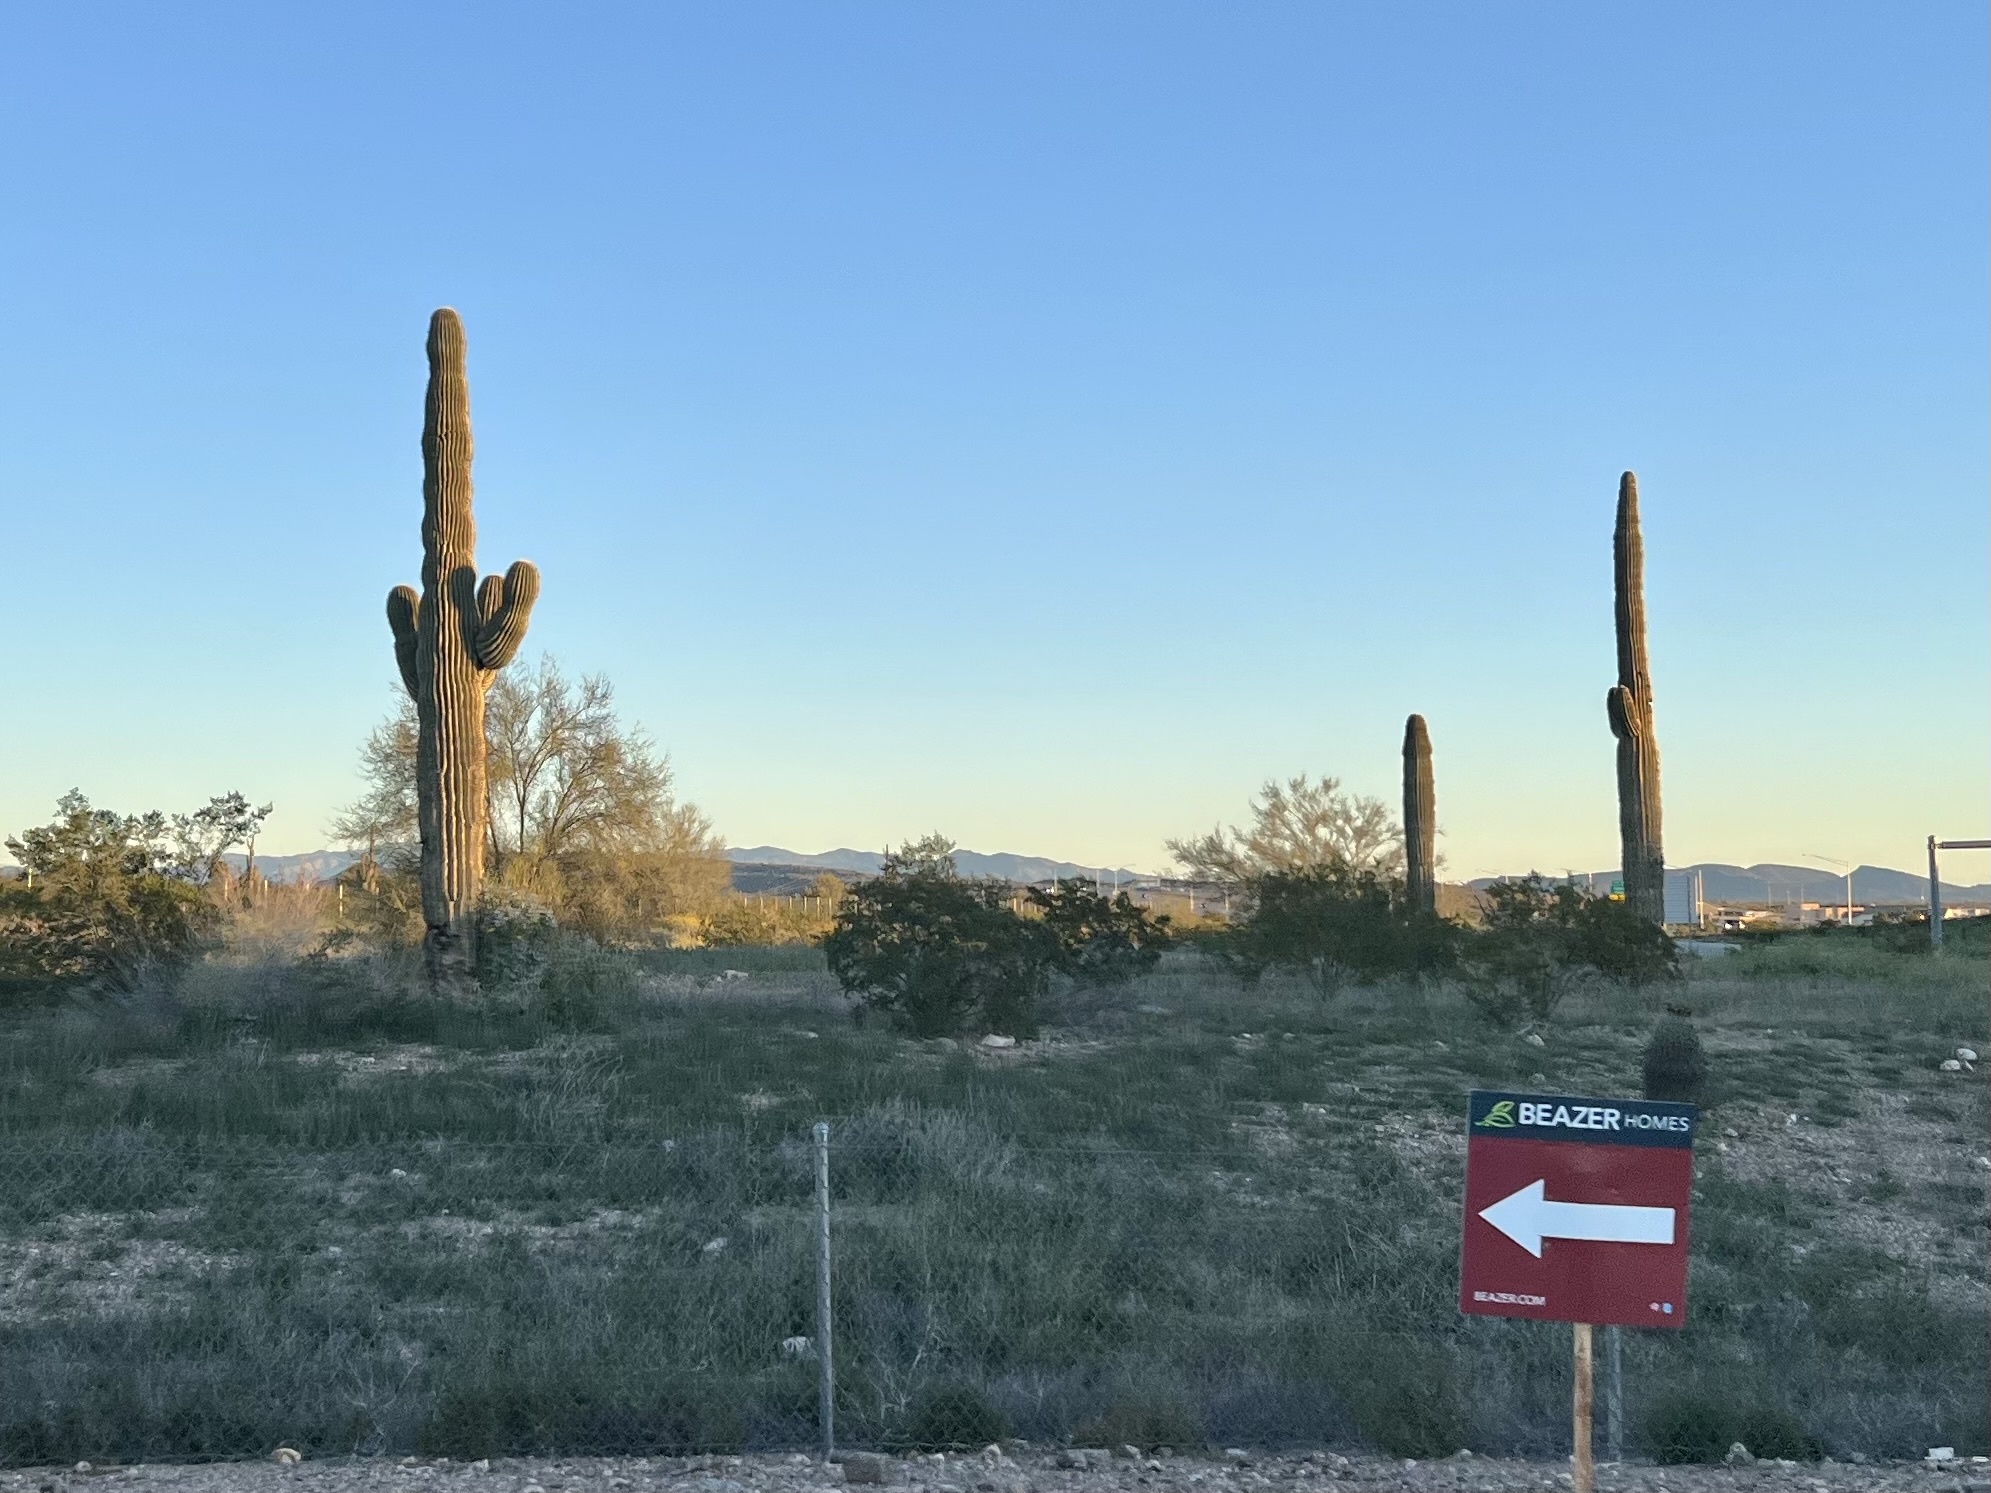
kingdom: Plantae
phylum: Tracheophyta
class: Magnoliopsida
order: Caryophyllales
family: Cactaceae
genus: Carnegiea
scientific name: Carnegiea gigantea
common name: Saguaro
